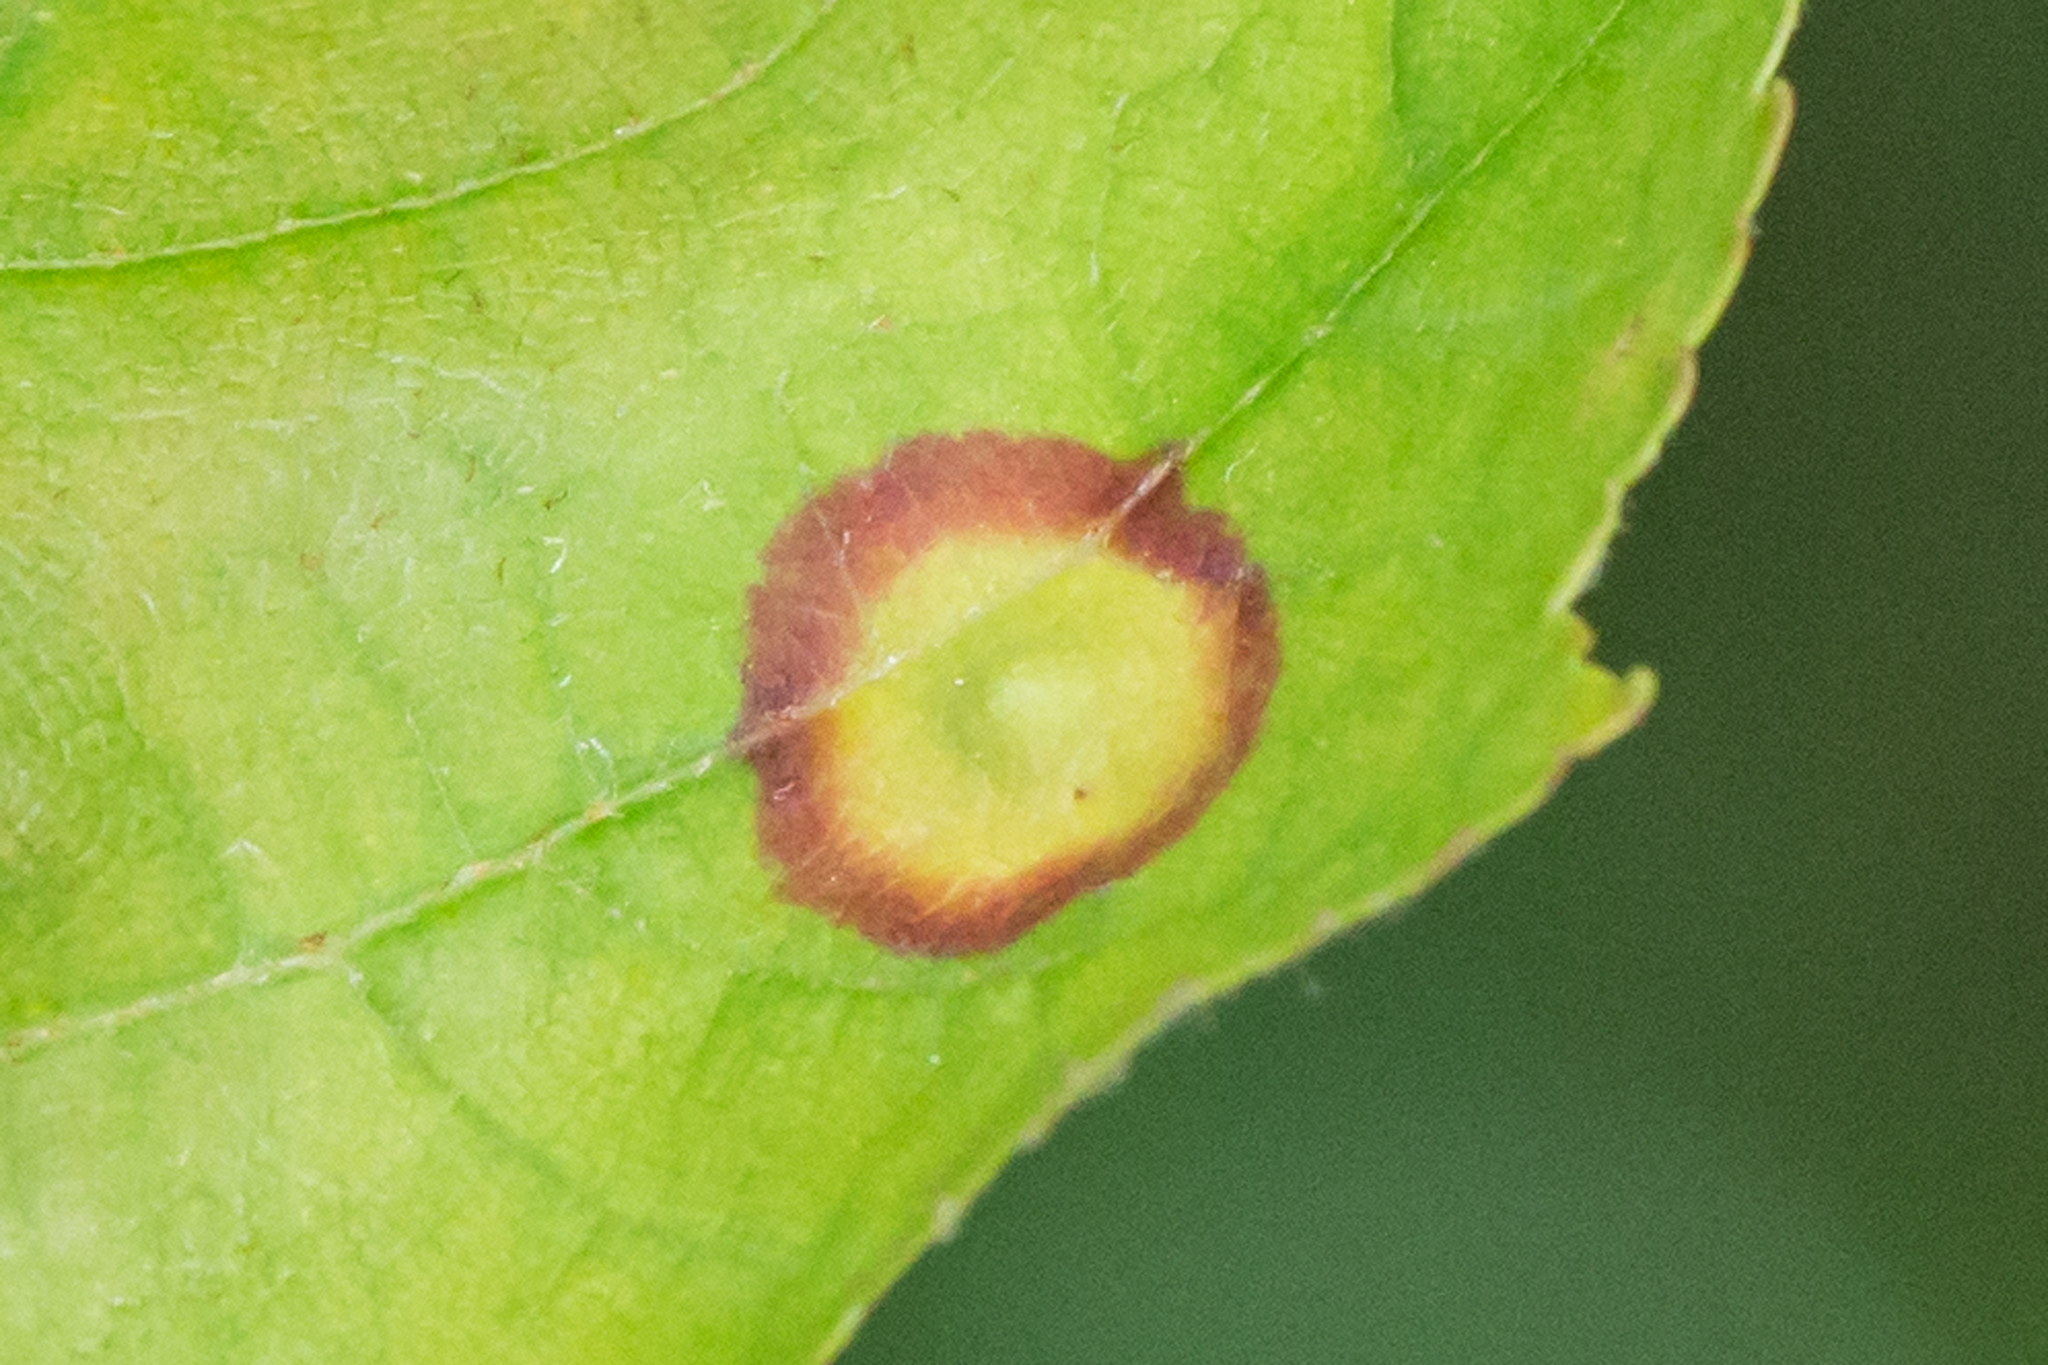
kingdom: Animalia
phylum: Arthropoda
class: Insecta
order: Diptera
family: Cecidomyiidae
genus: Acericecis
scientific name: Acericecis ocellaris
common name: Ocellate gall midge
